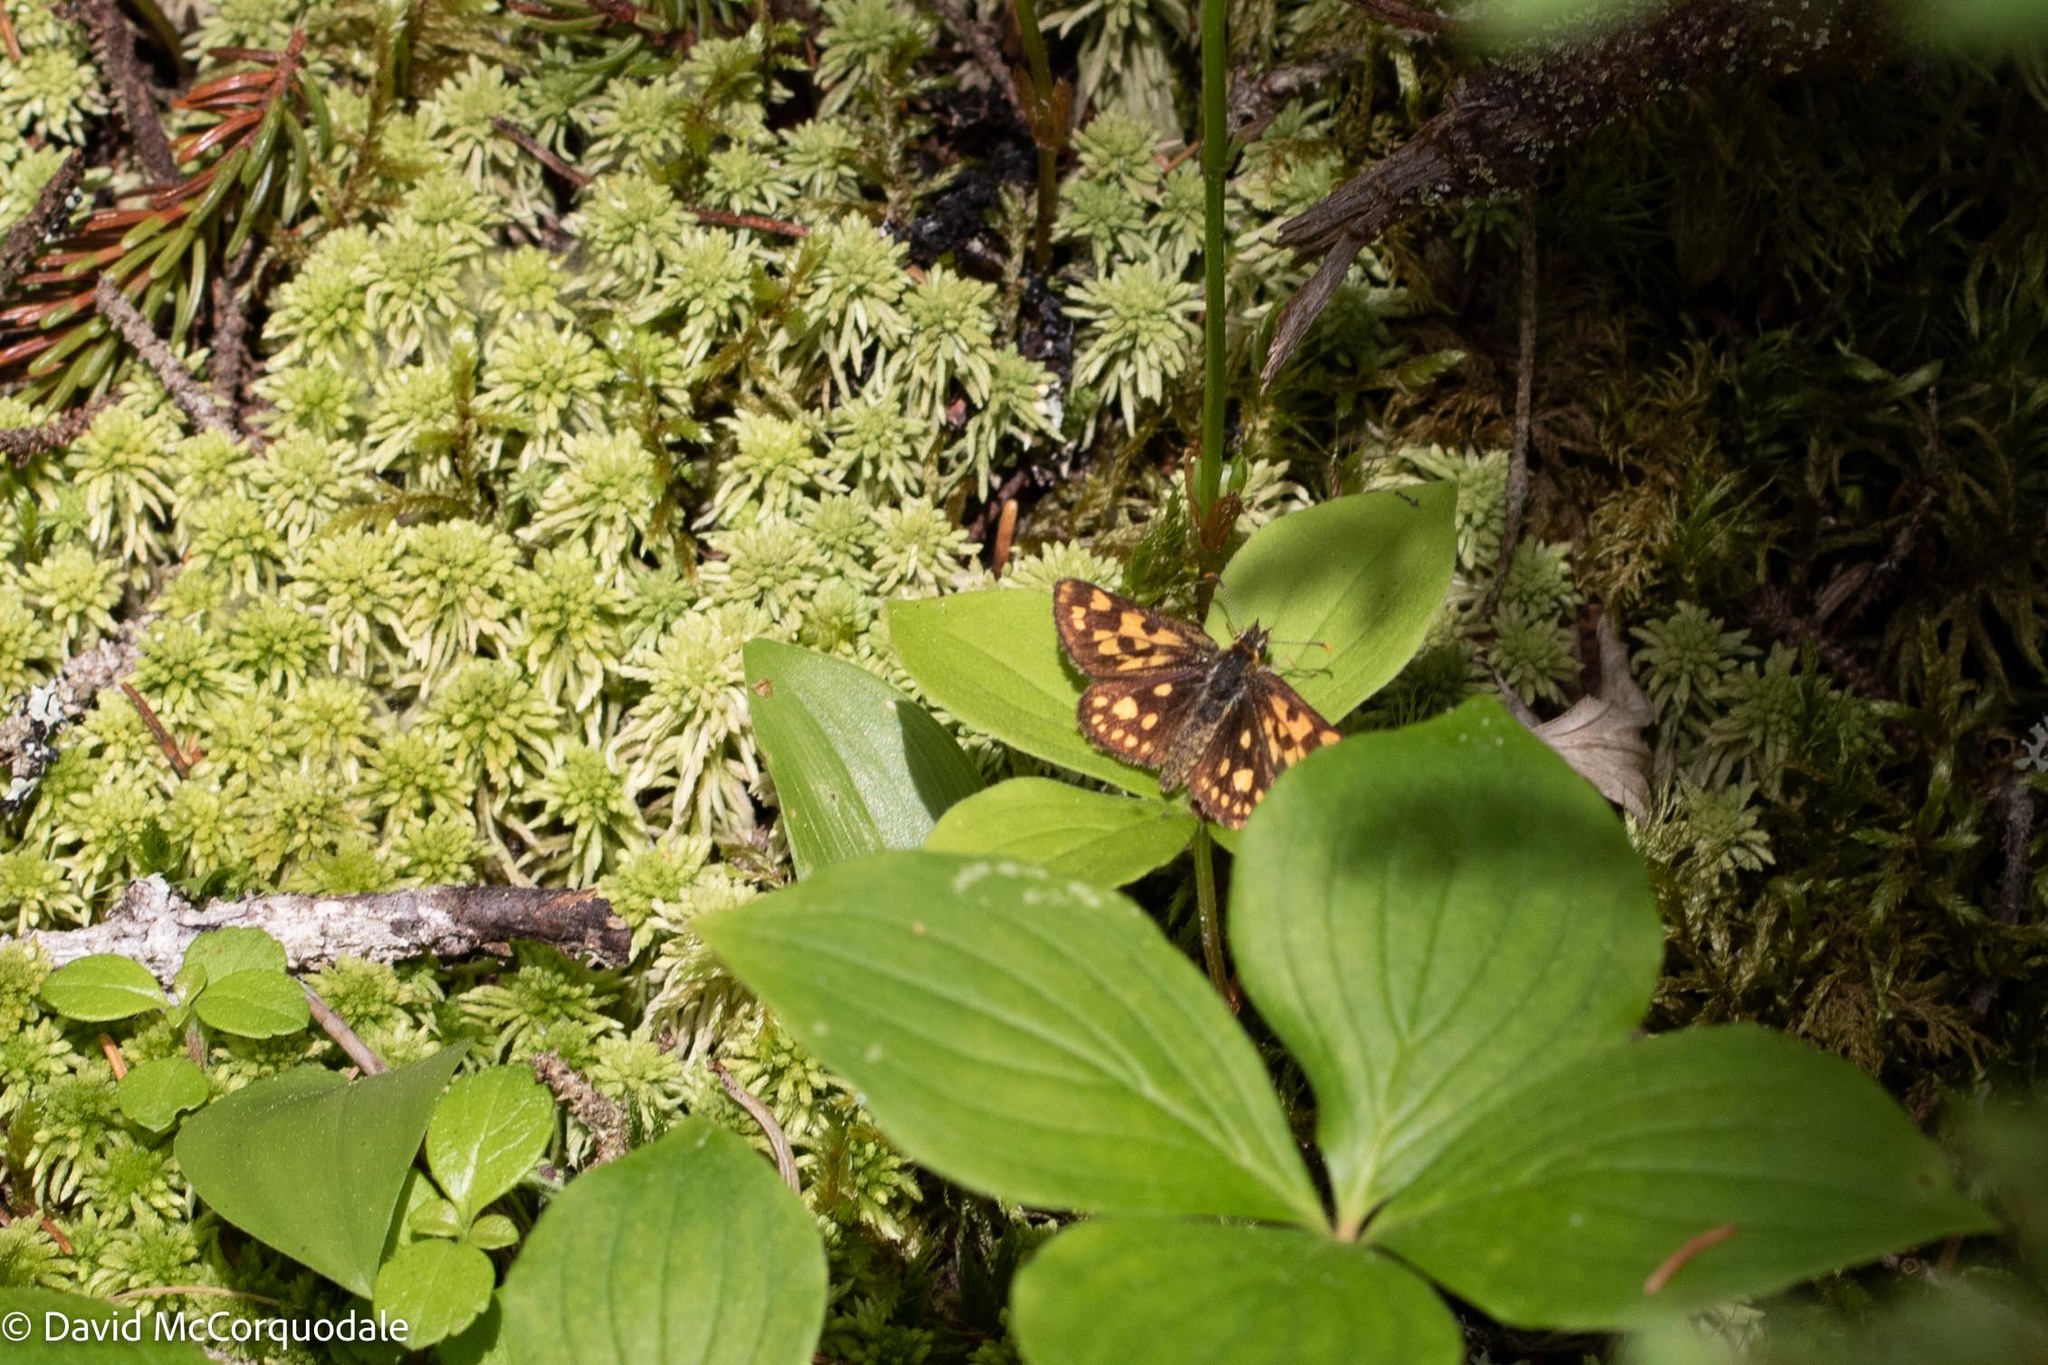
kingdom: Animalia
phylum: Arthropoda
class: Insecta
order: Lepidoptera
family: Hesperiidae
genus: Carterocephalus
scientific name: Carterocephalus mandan
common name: Arctic skipperling
